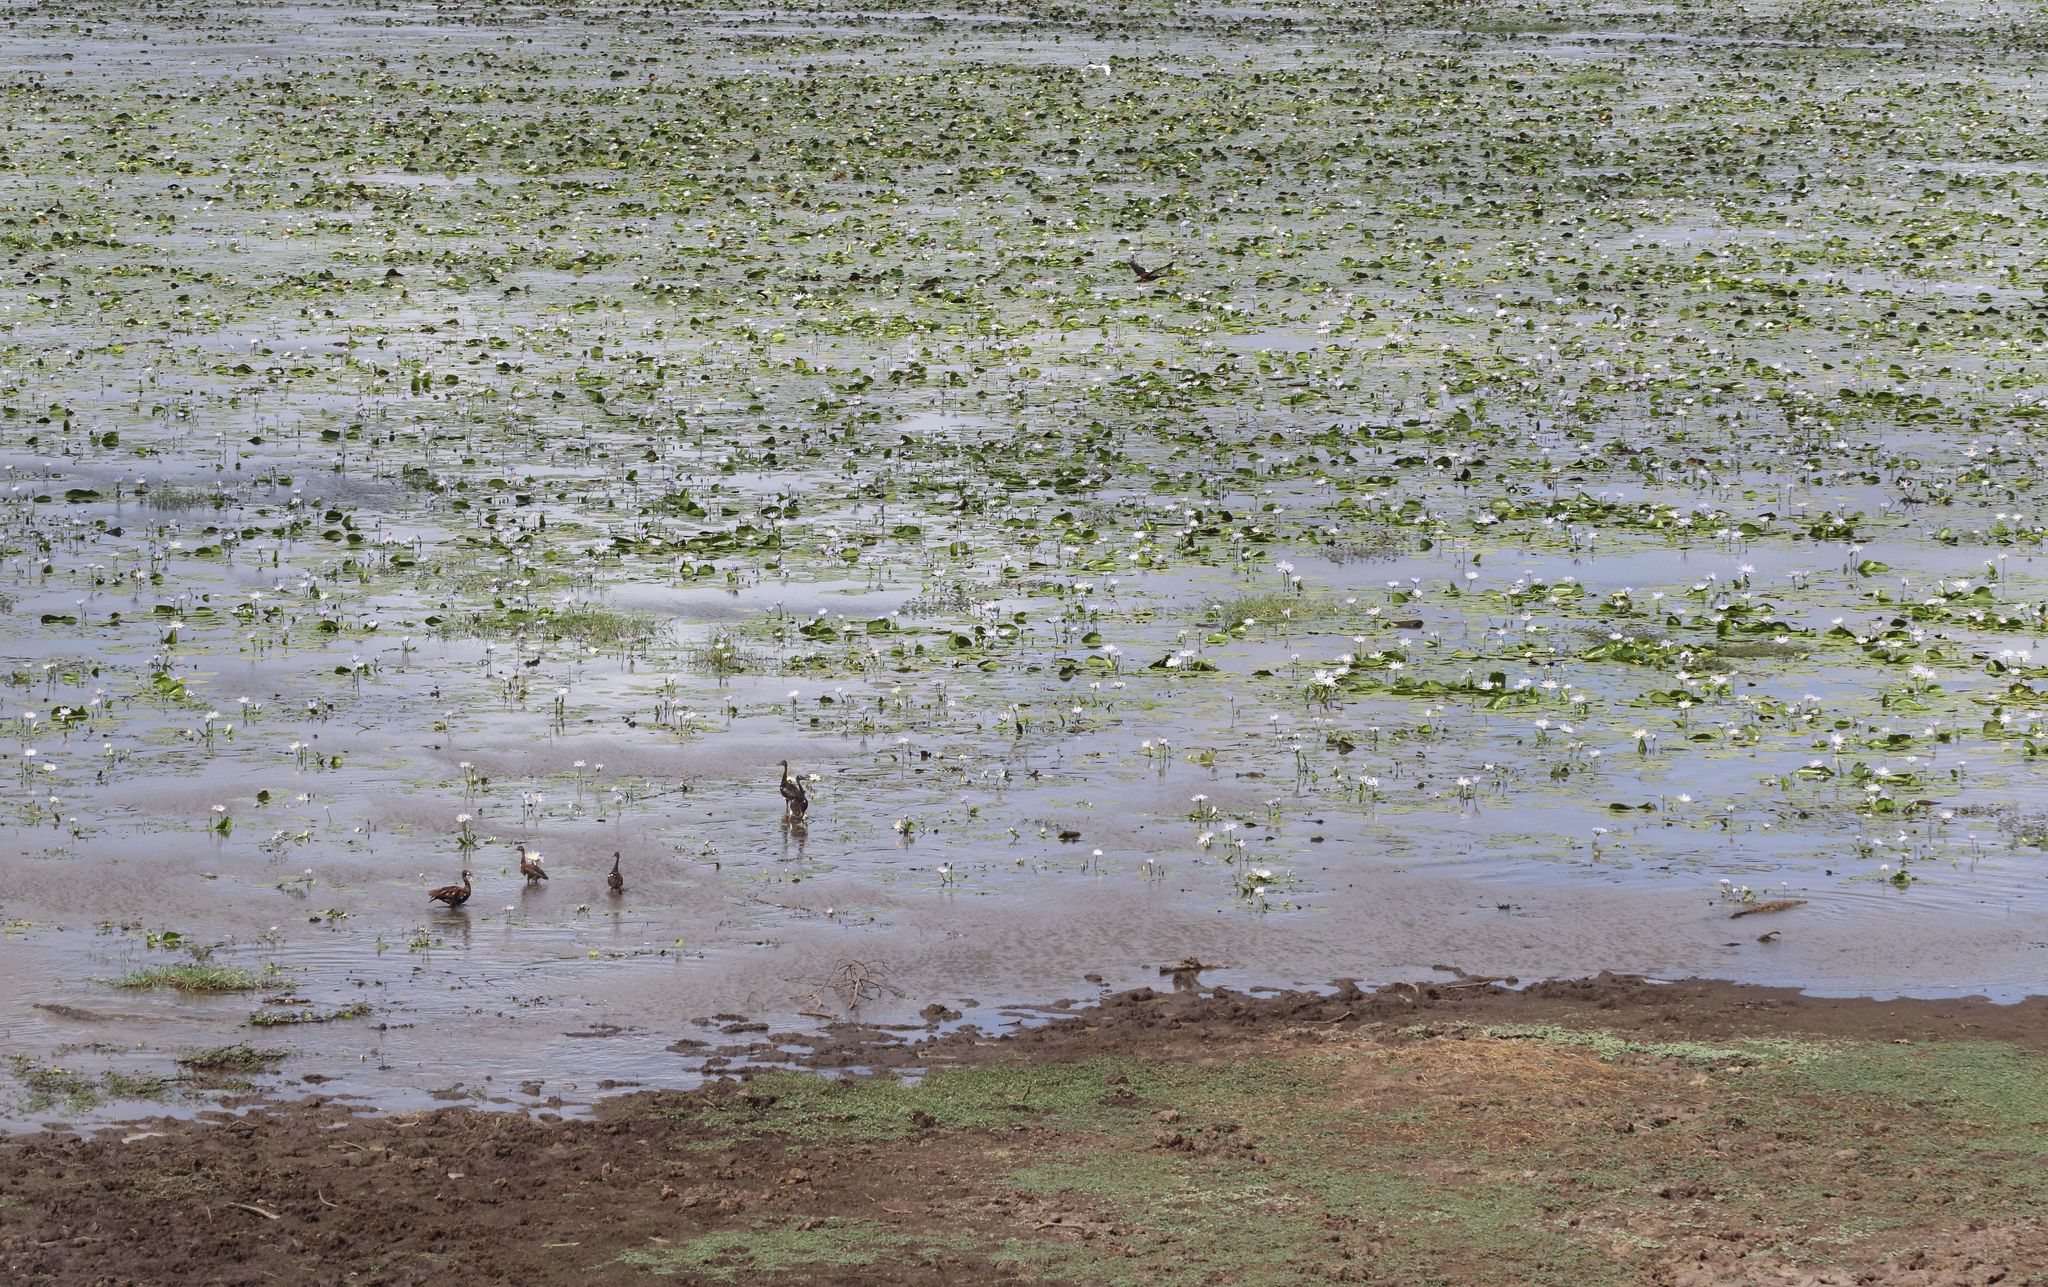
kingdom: Animalia
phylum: Chordata
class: Aves
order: Anseriformes
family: Anatidae
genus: Plectropterus
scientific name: Plectropterus gambensis
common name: Spur-winged goose
